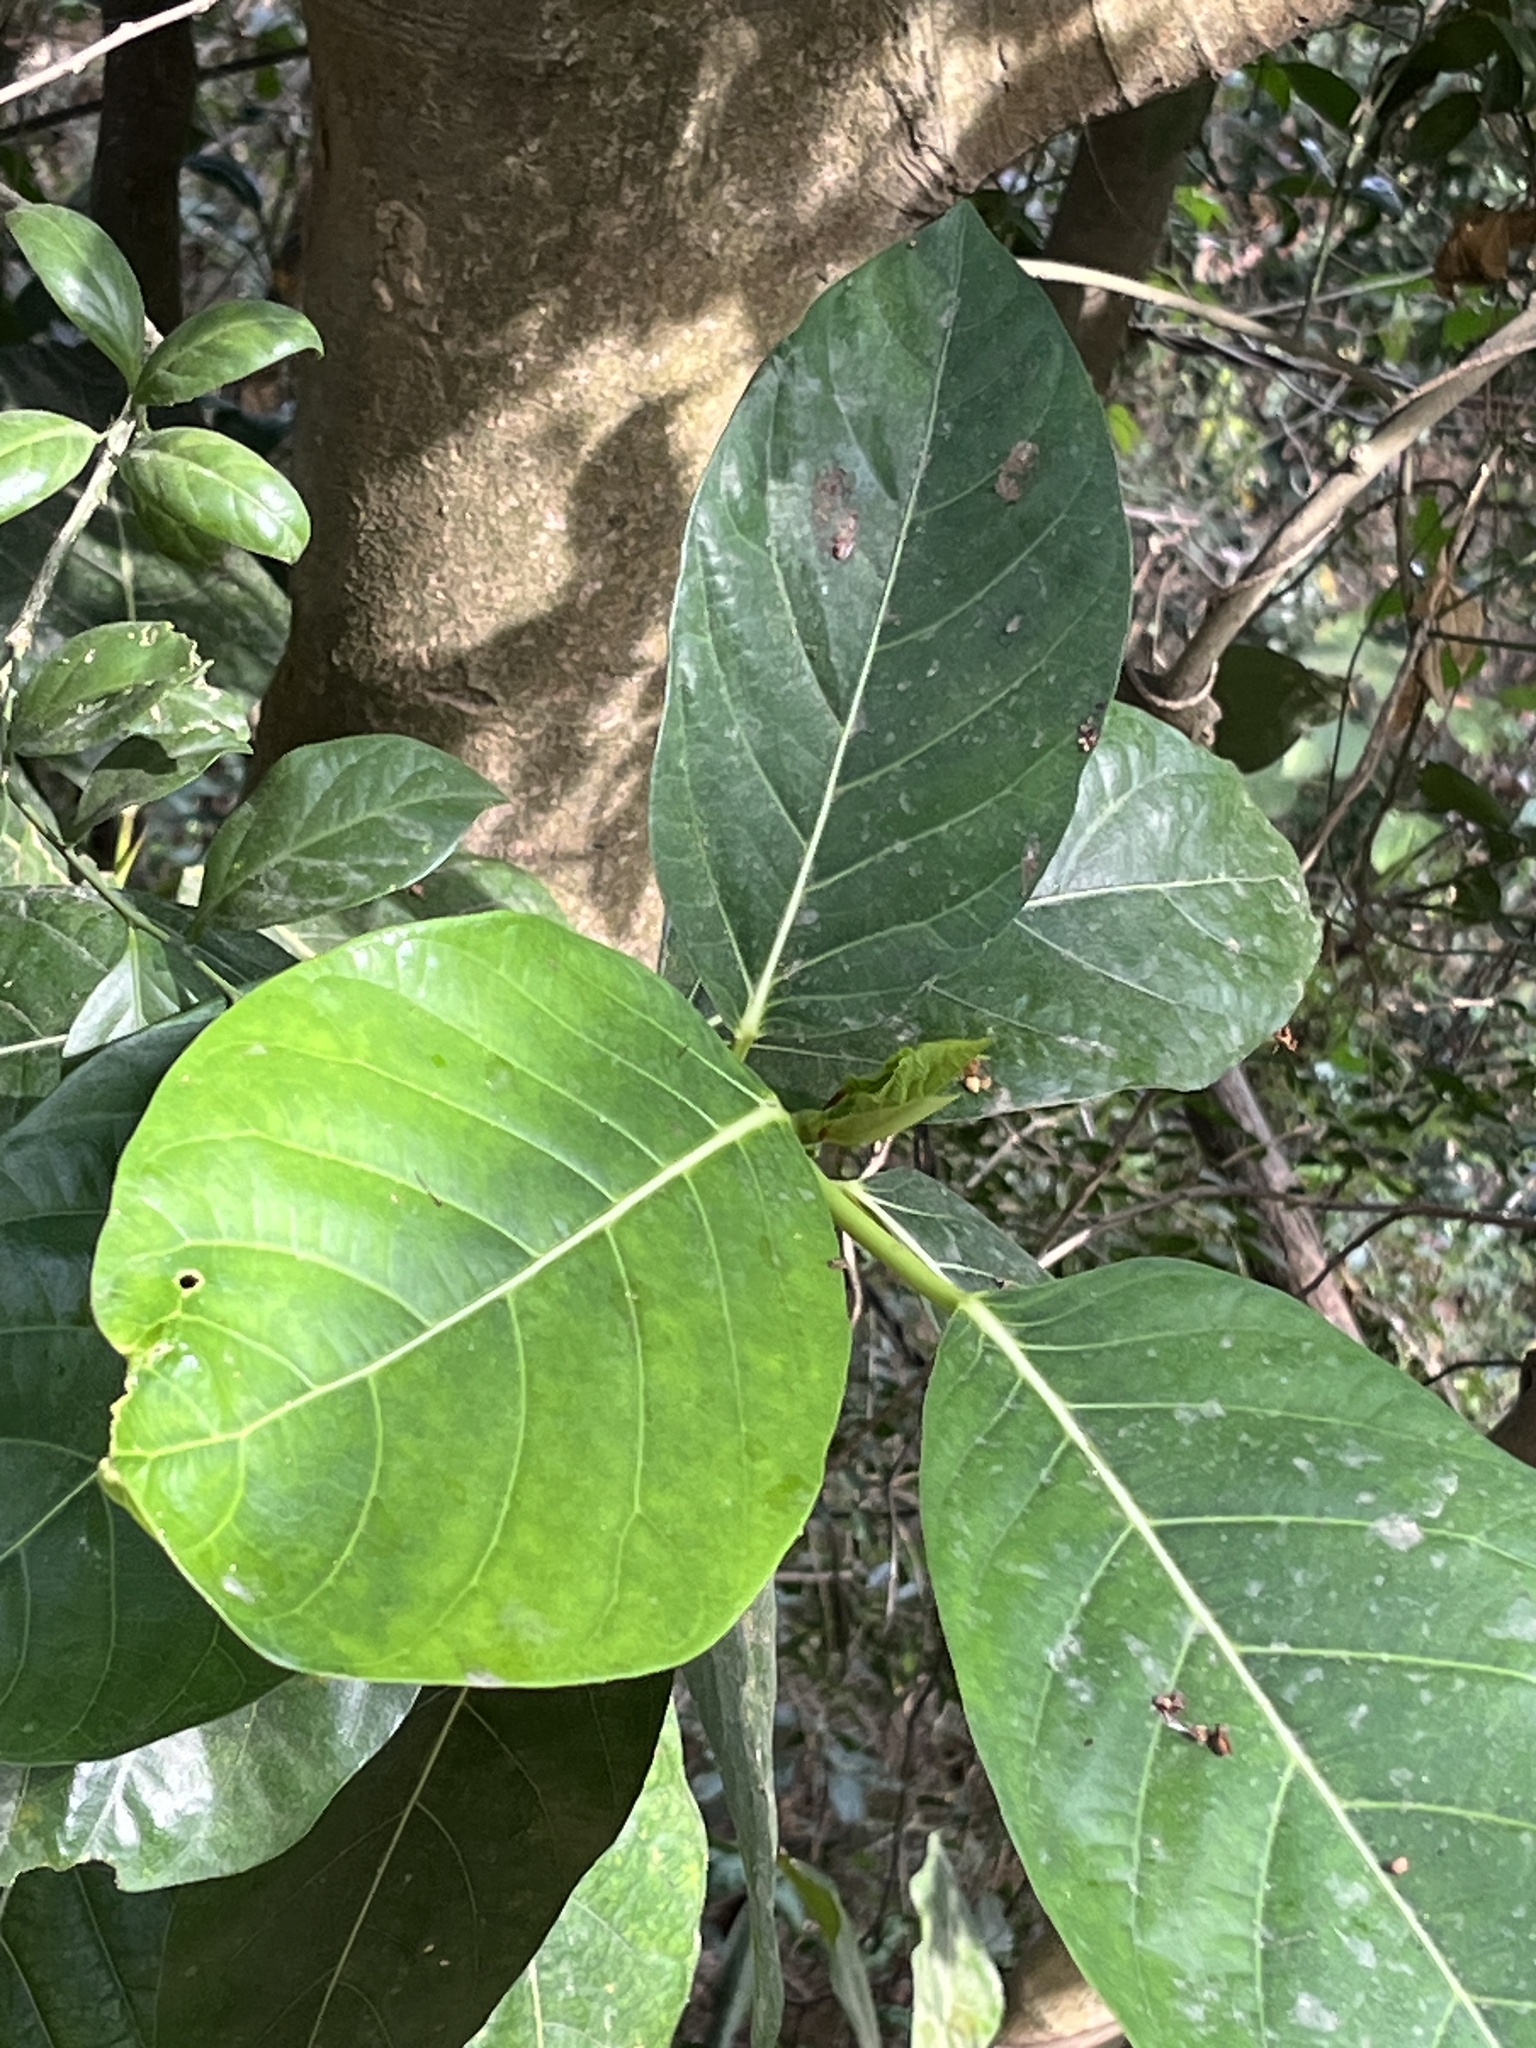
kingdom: Plantae
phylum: Tracheophyta
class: Magnoliopsida
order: Rosales
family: Moraceae
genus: Ficus
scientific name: Ficus septica
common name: Septic fig
